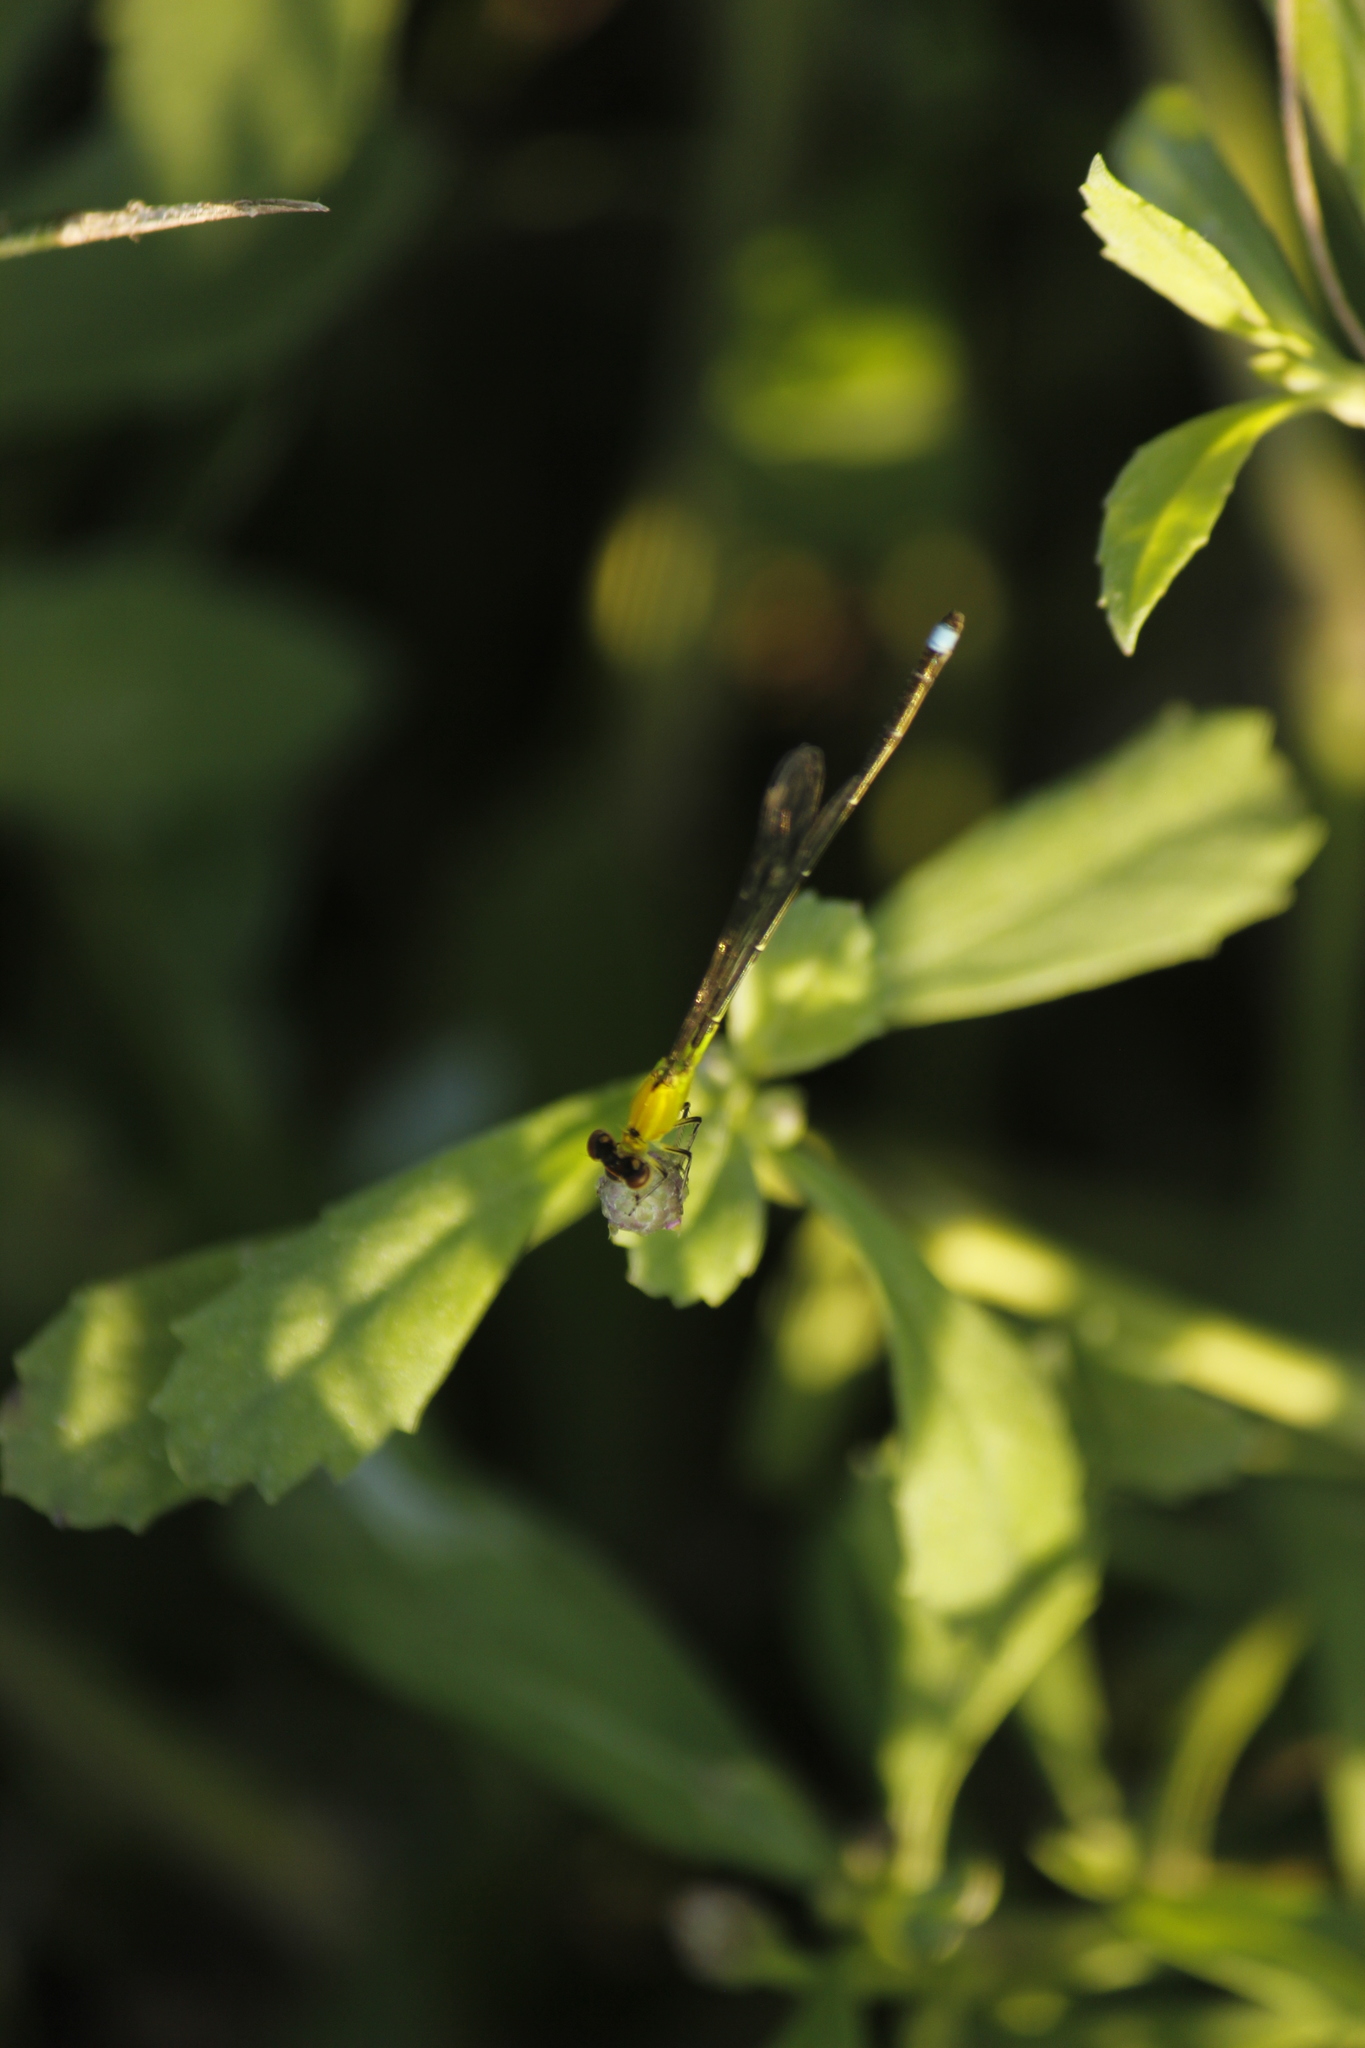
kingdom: Animalia
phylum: Arthropoda
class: Insecta
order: Odonata
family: Coenagrionidae
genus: Ischnura
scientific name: Ischnura capreolus
